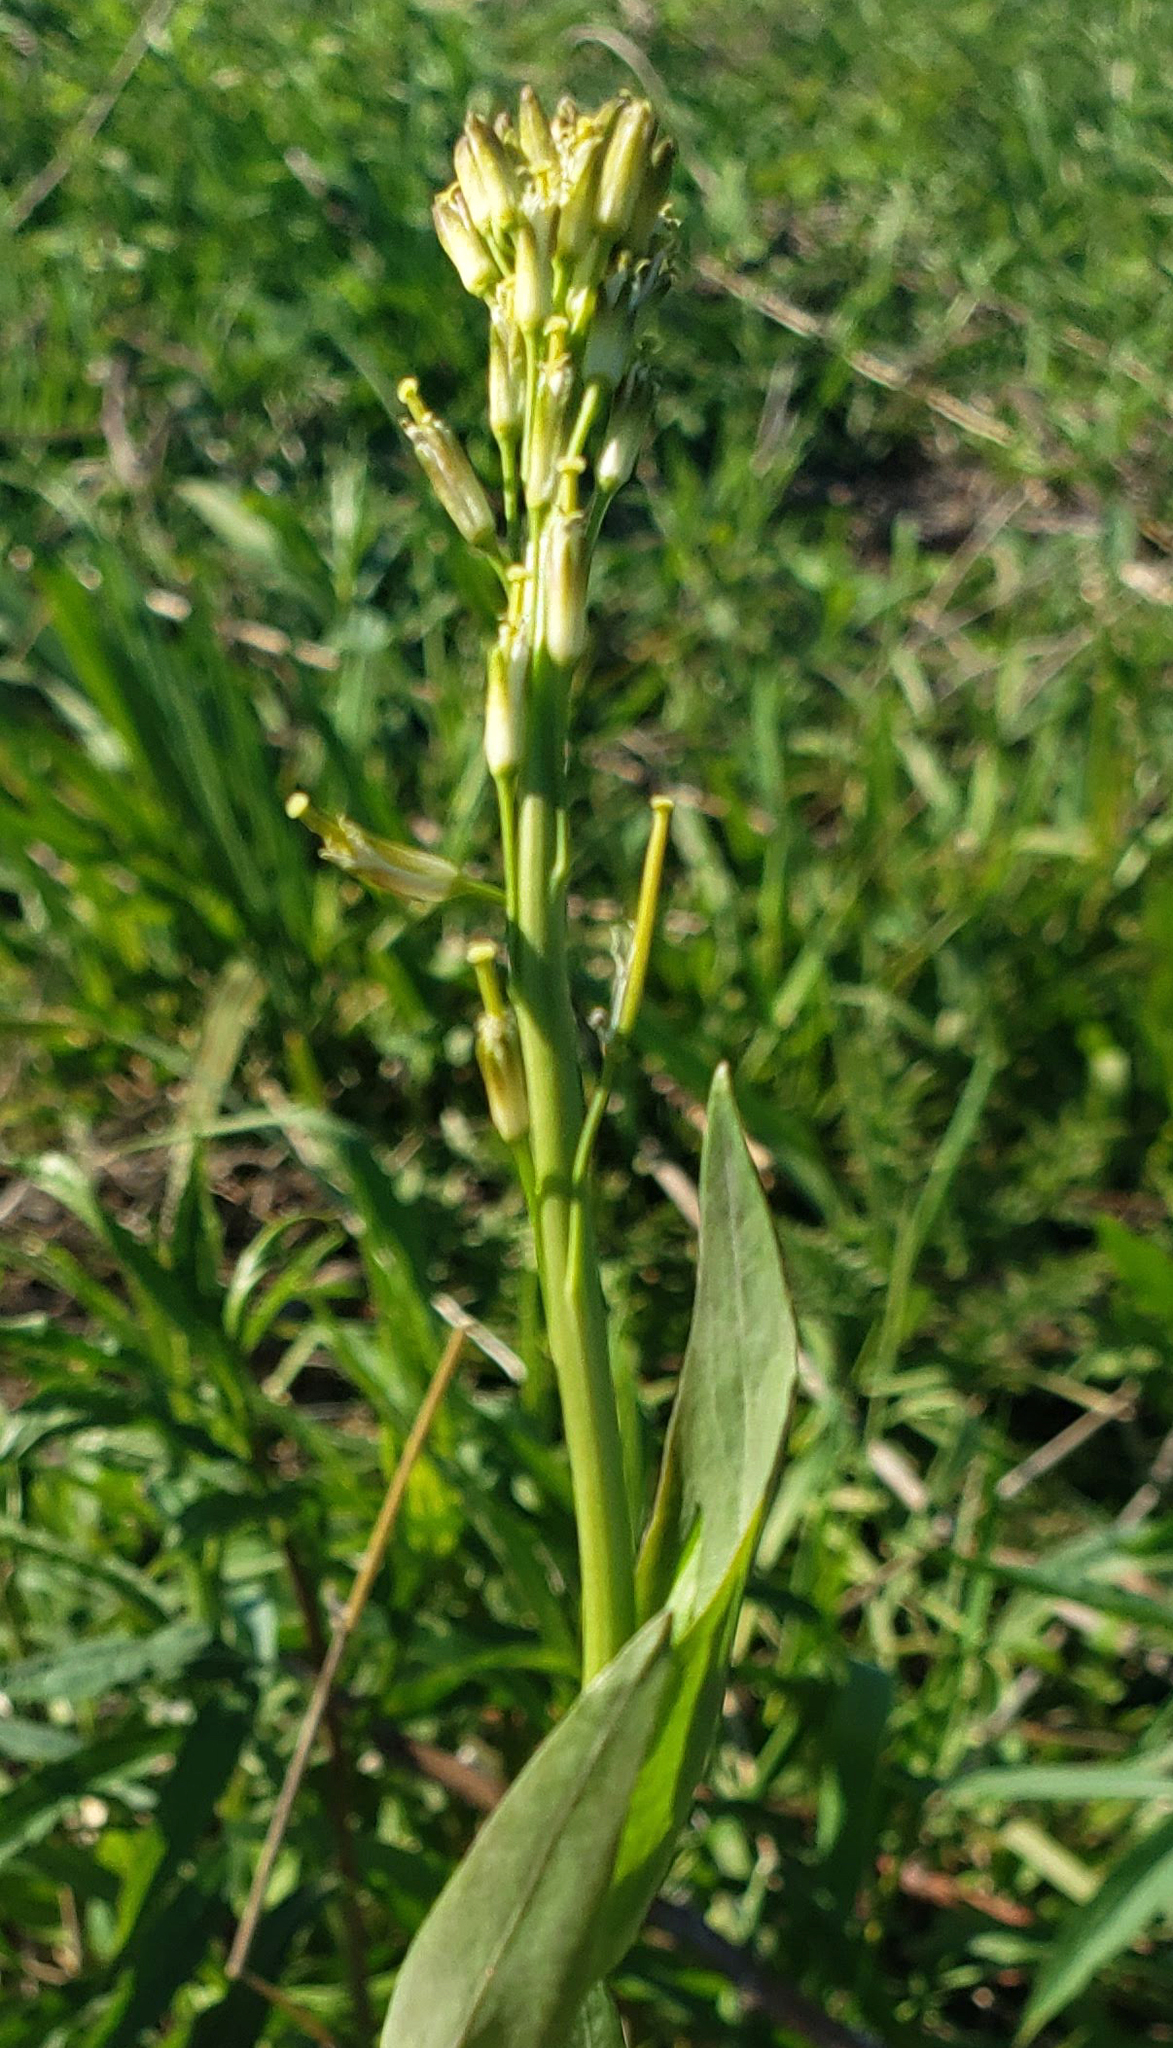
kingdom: Plantae
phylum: Tracheophyta
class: Magnoliopsida
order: Brassicales
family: Brassicaceae
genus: Turritis
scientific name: Turritis glabra
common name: Tower rockcress
